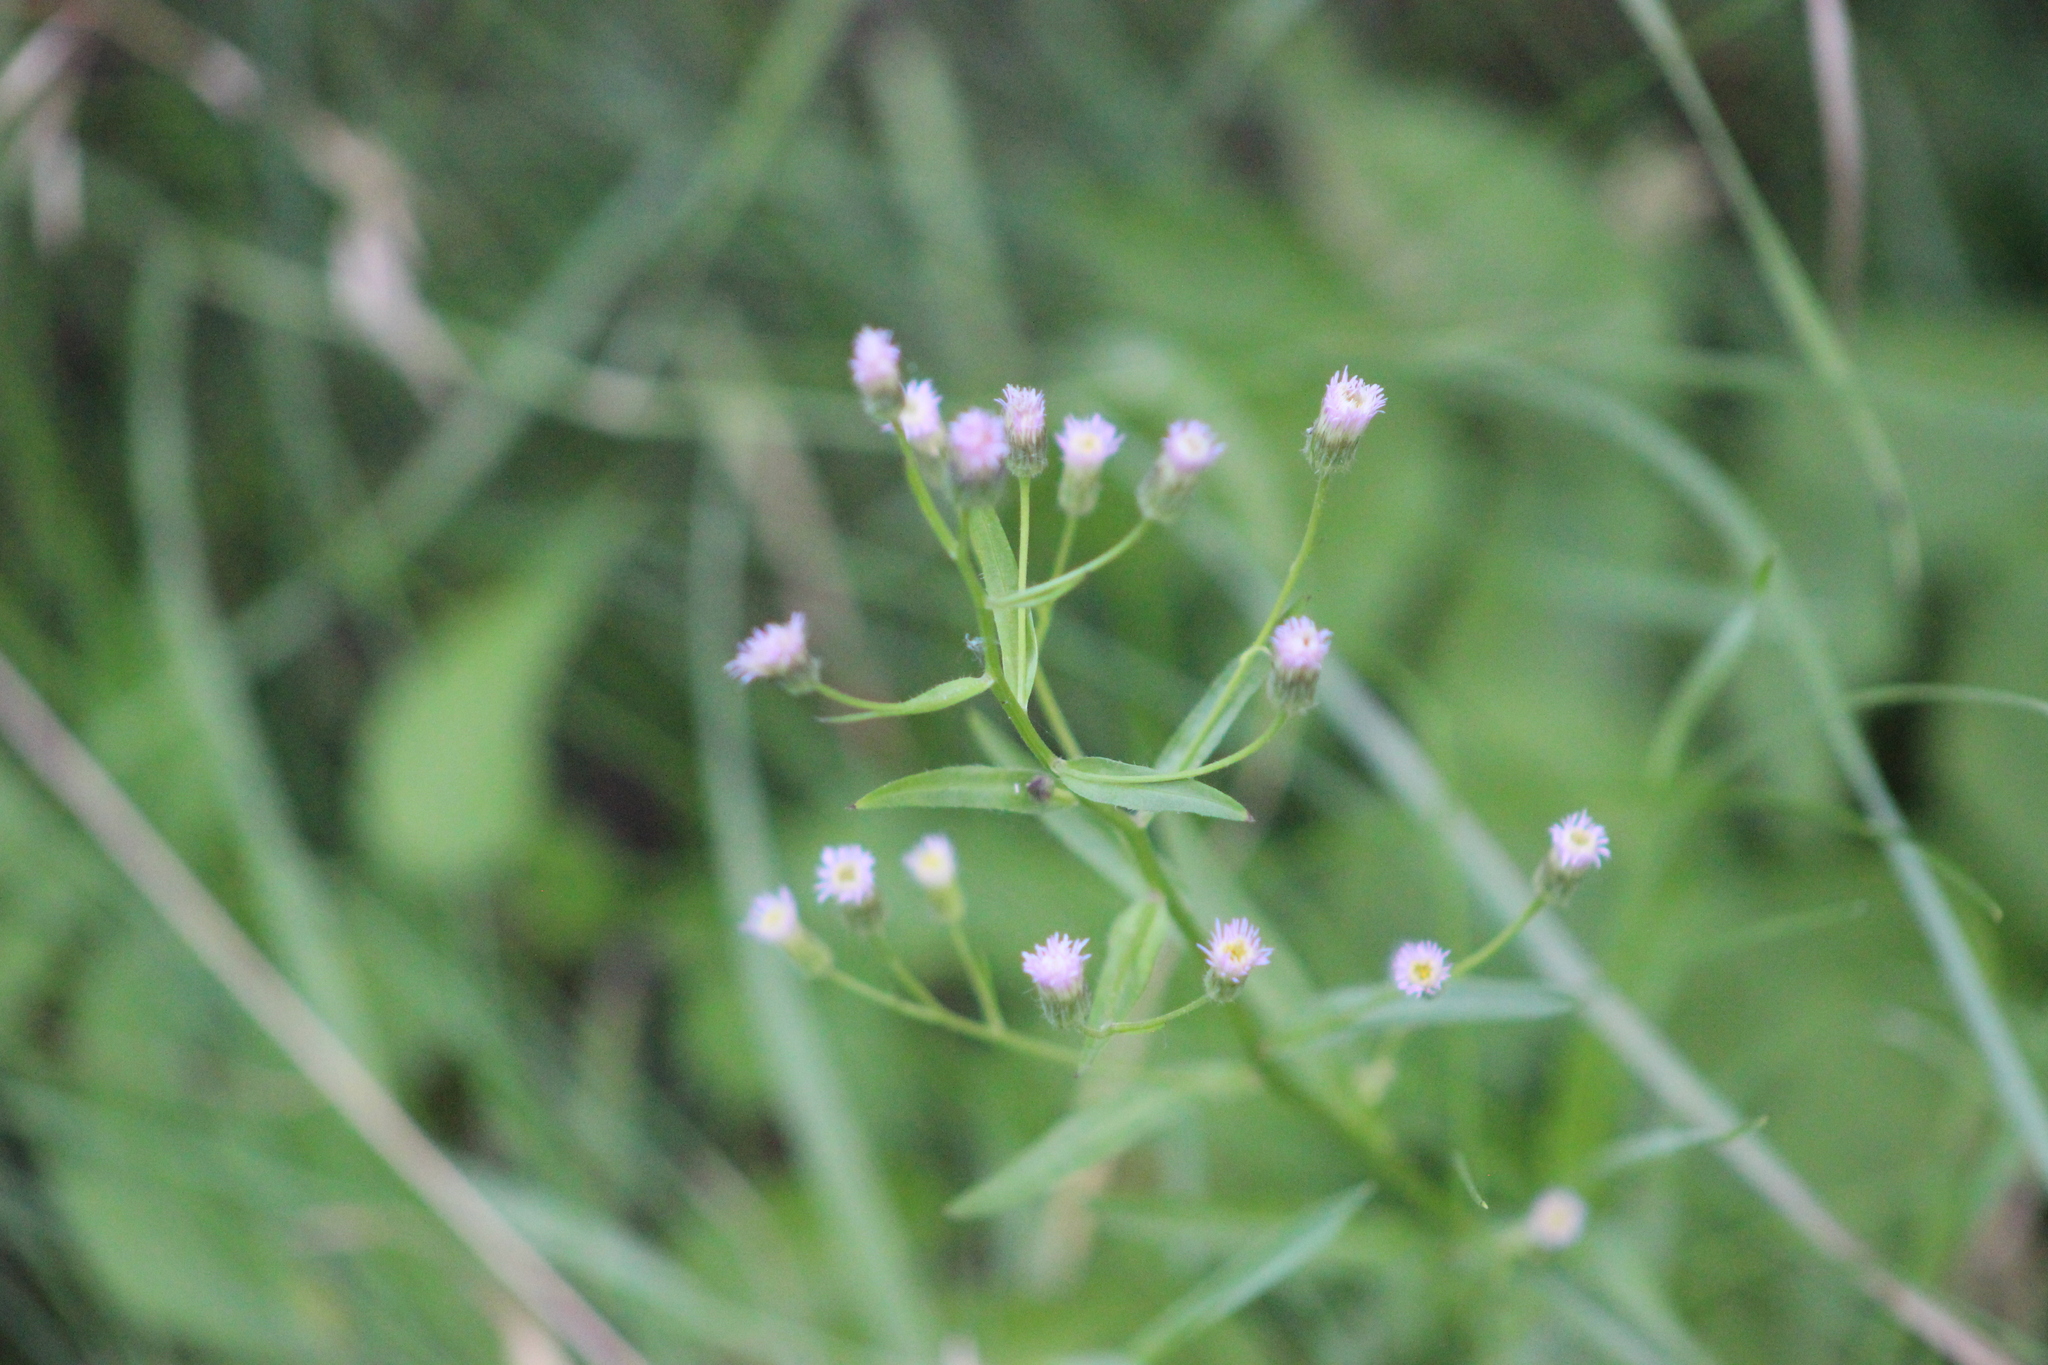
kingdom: Plantae
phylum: Tracheophyta
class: Magnoliopsida
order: Asterales
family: Asteraceae
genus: Erigeron
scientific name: Erigeron acris
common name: Blue fleabane
